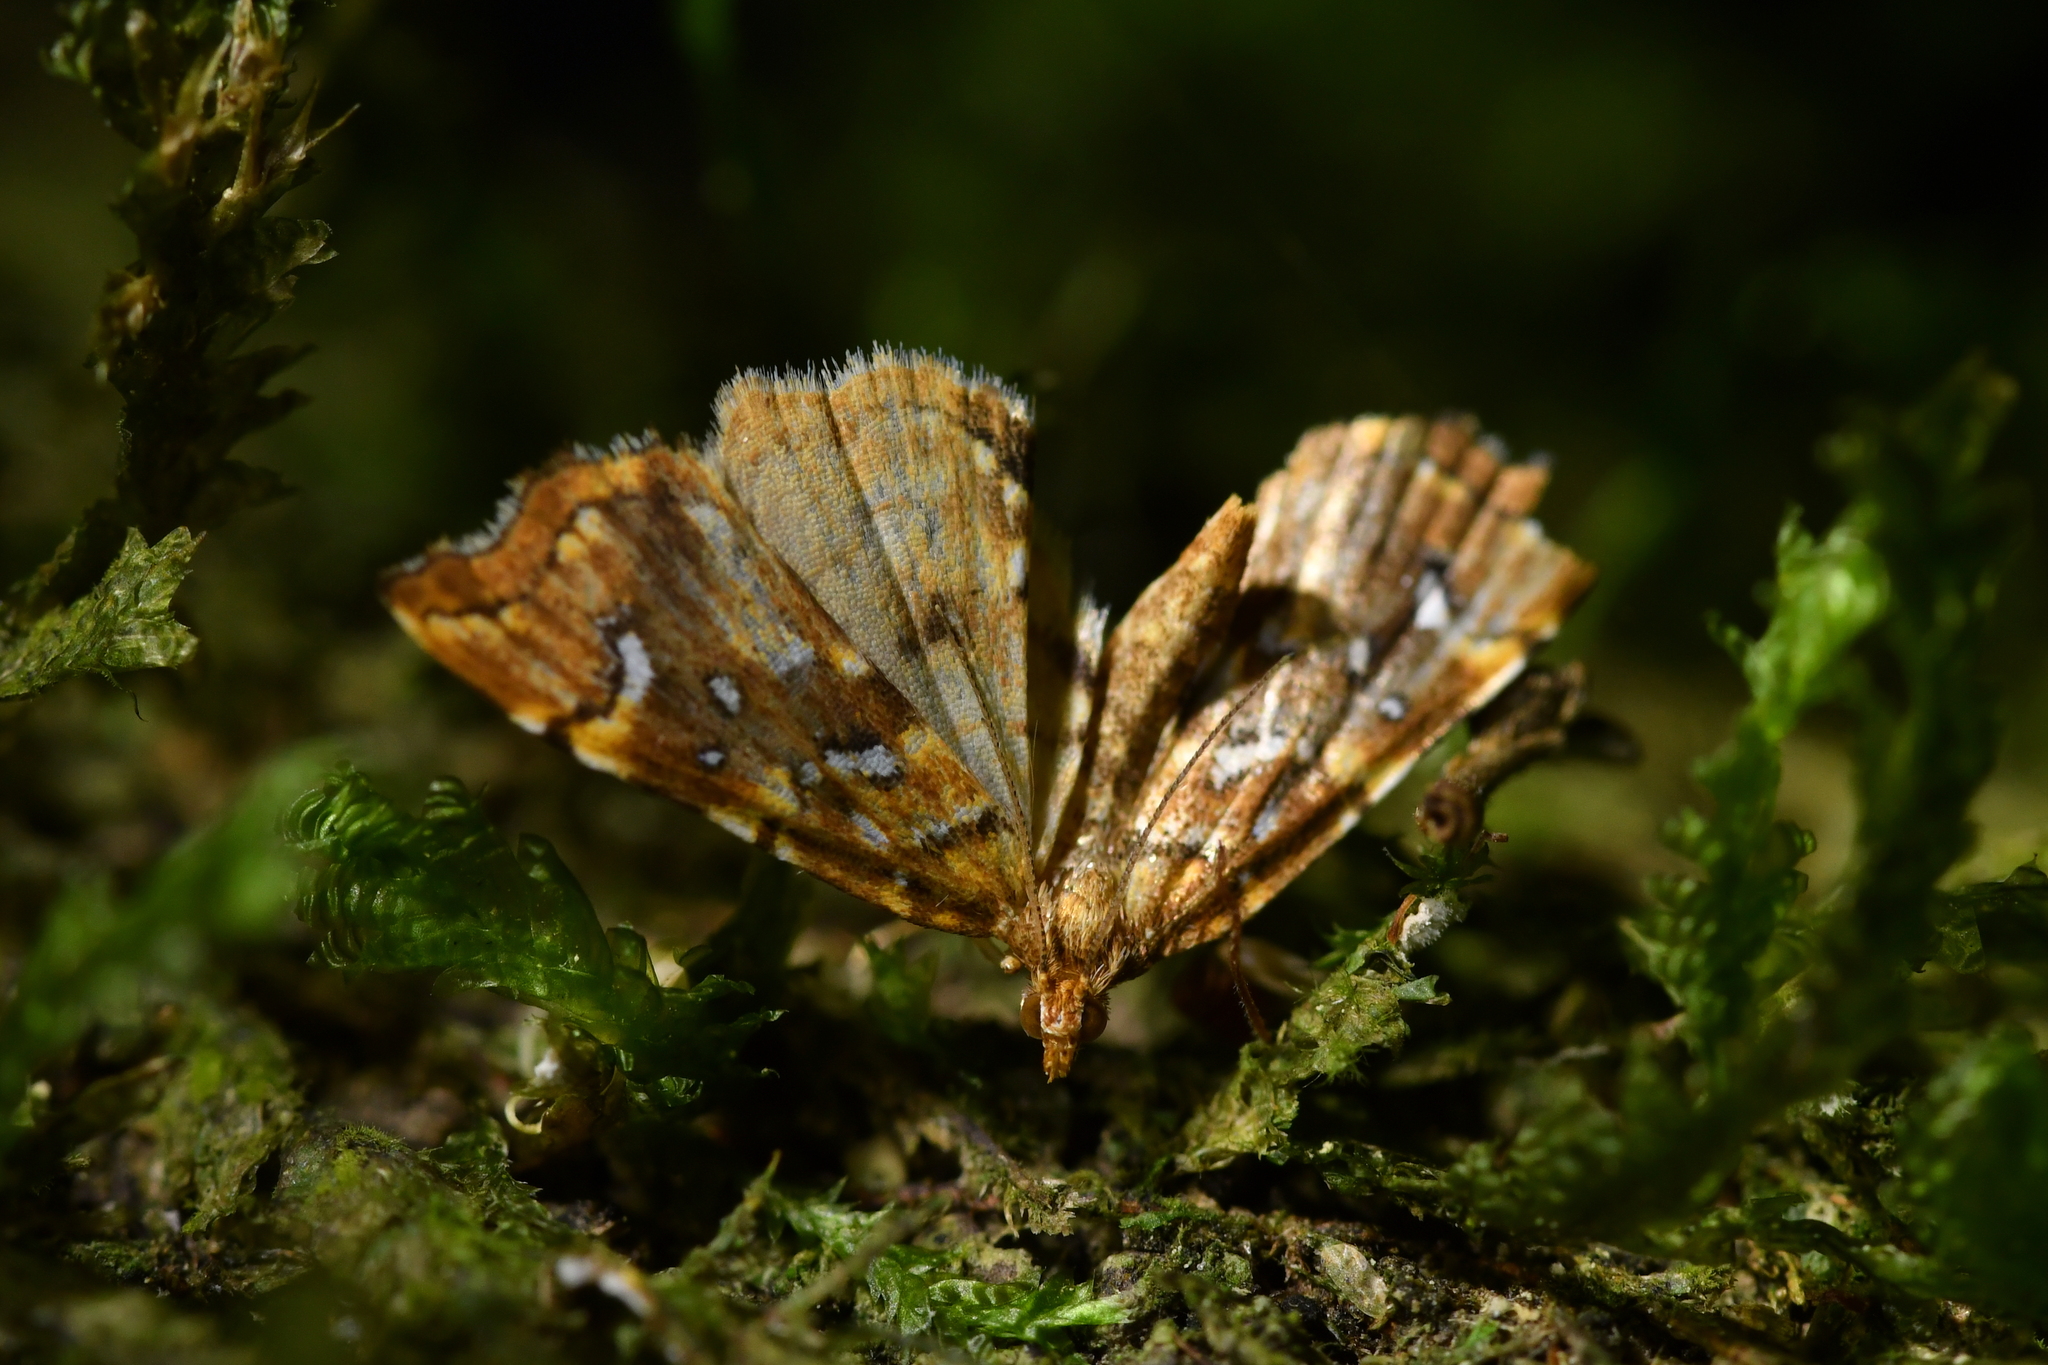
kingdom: Animalia
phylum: Arthropoda
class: Insecta
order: Lepidoptera
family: Pyralidae
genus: Musotima
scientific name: Musotima nitidalis
